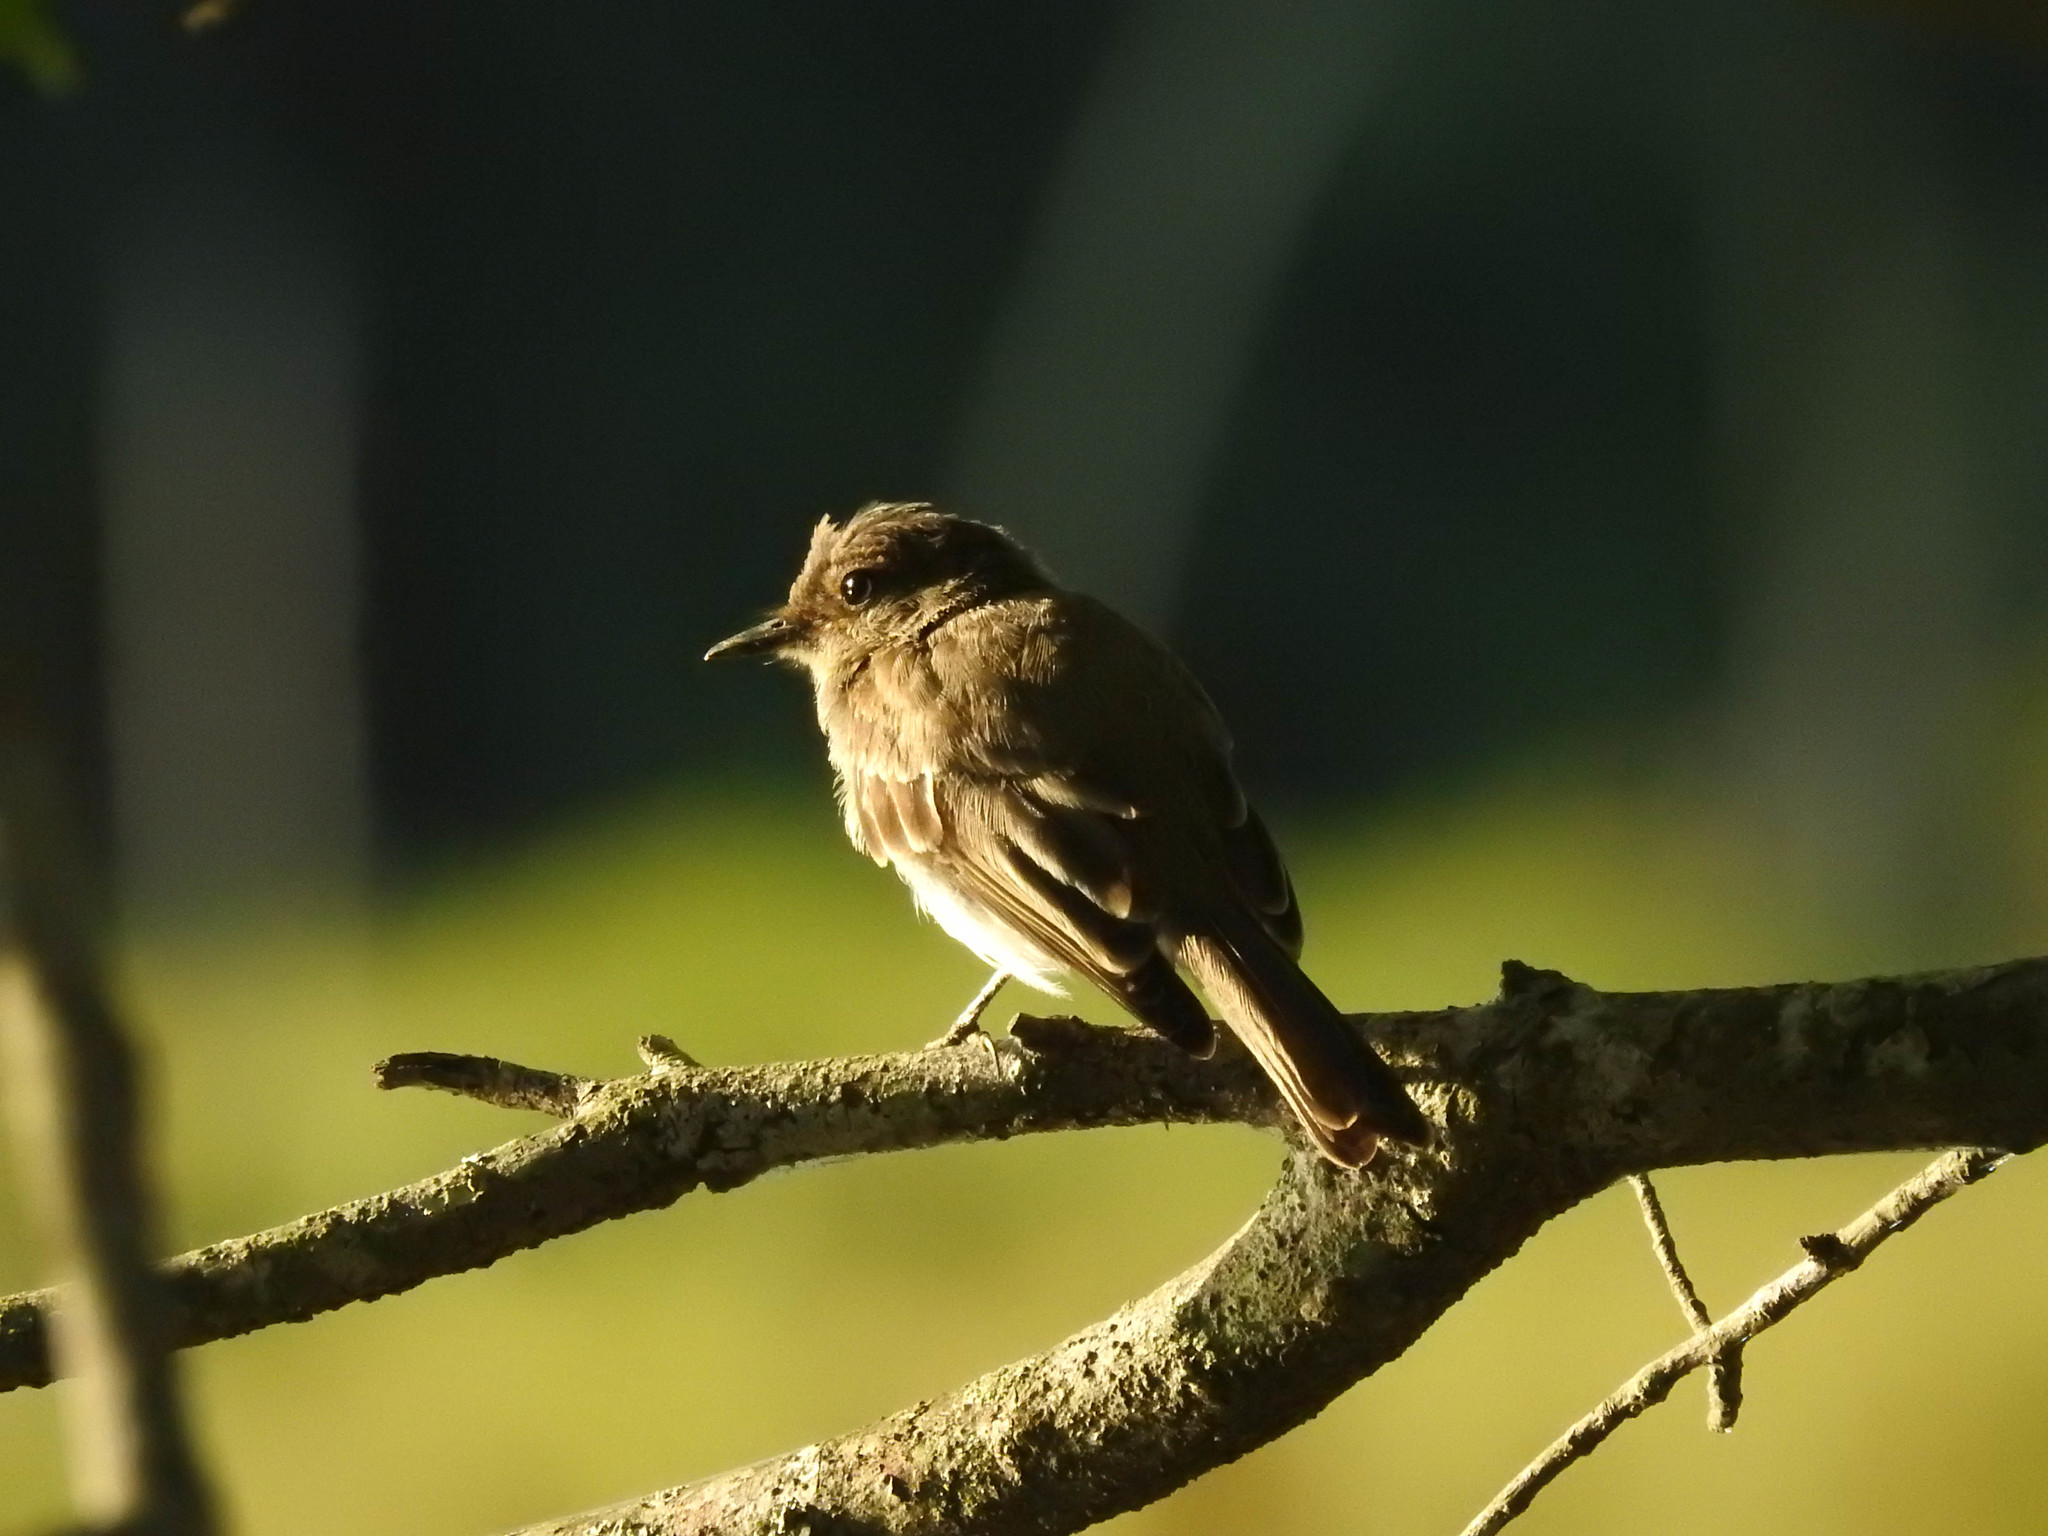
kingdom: Animalia
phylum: Chordata
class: Aves
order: Passeriformes
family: Tyrannidae
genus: Sayornis
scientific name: Sayornis phoebe
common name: Eastern phoebe
